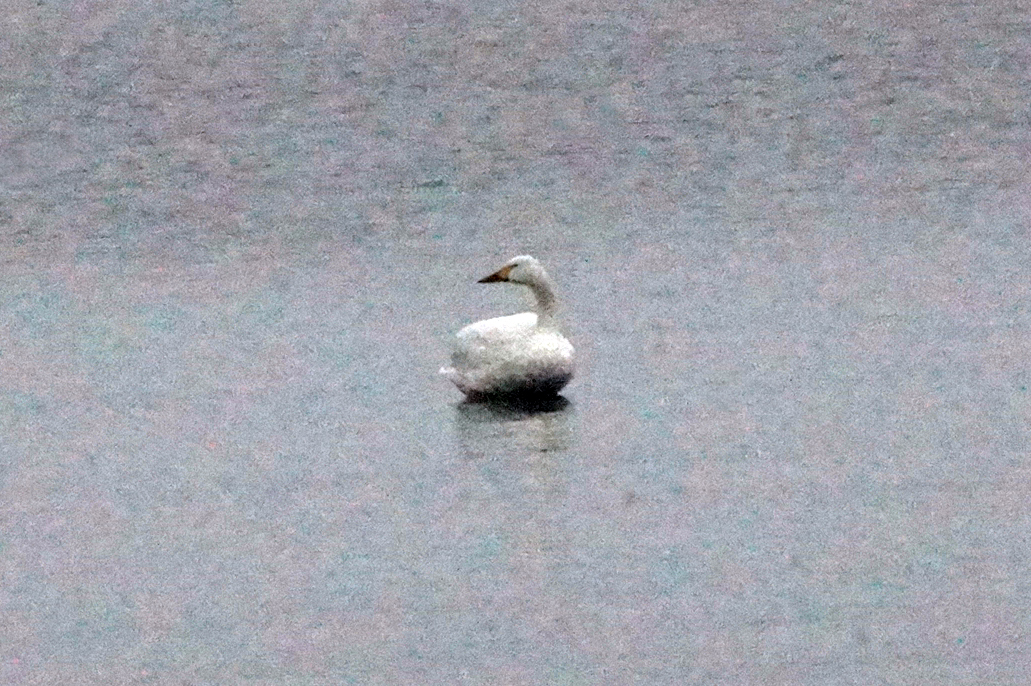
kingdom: Animalia
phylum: Chordata
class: Aves
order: Anseriformes
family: Anatidae
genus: Cygnus
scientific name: Cygnus columbianus
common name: Tundra swan
